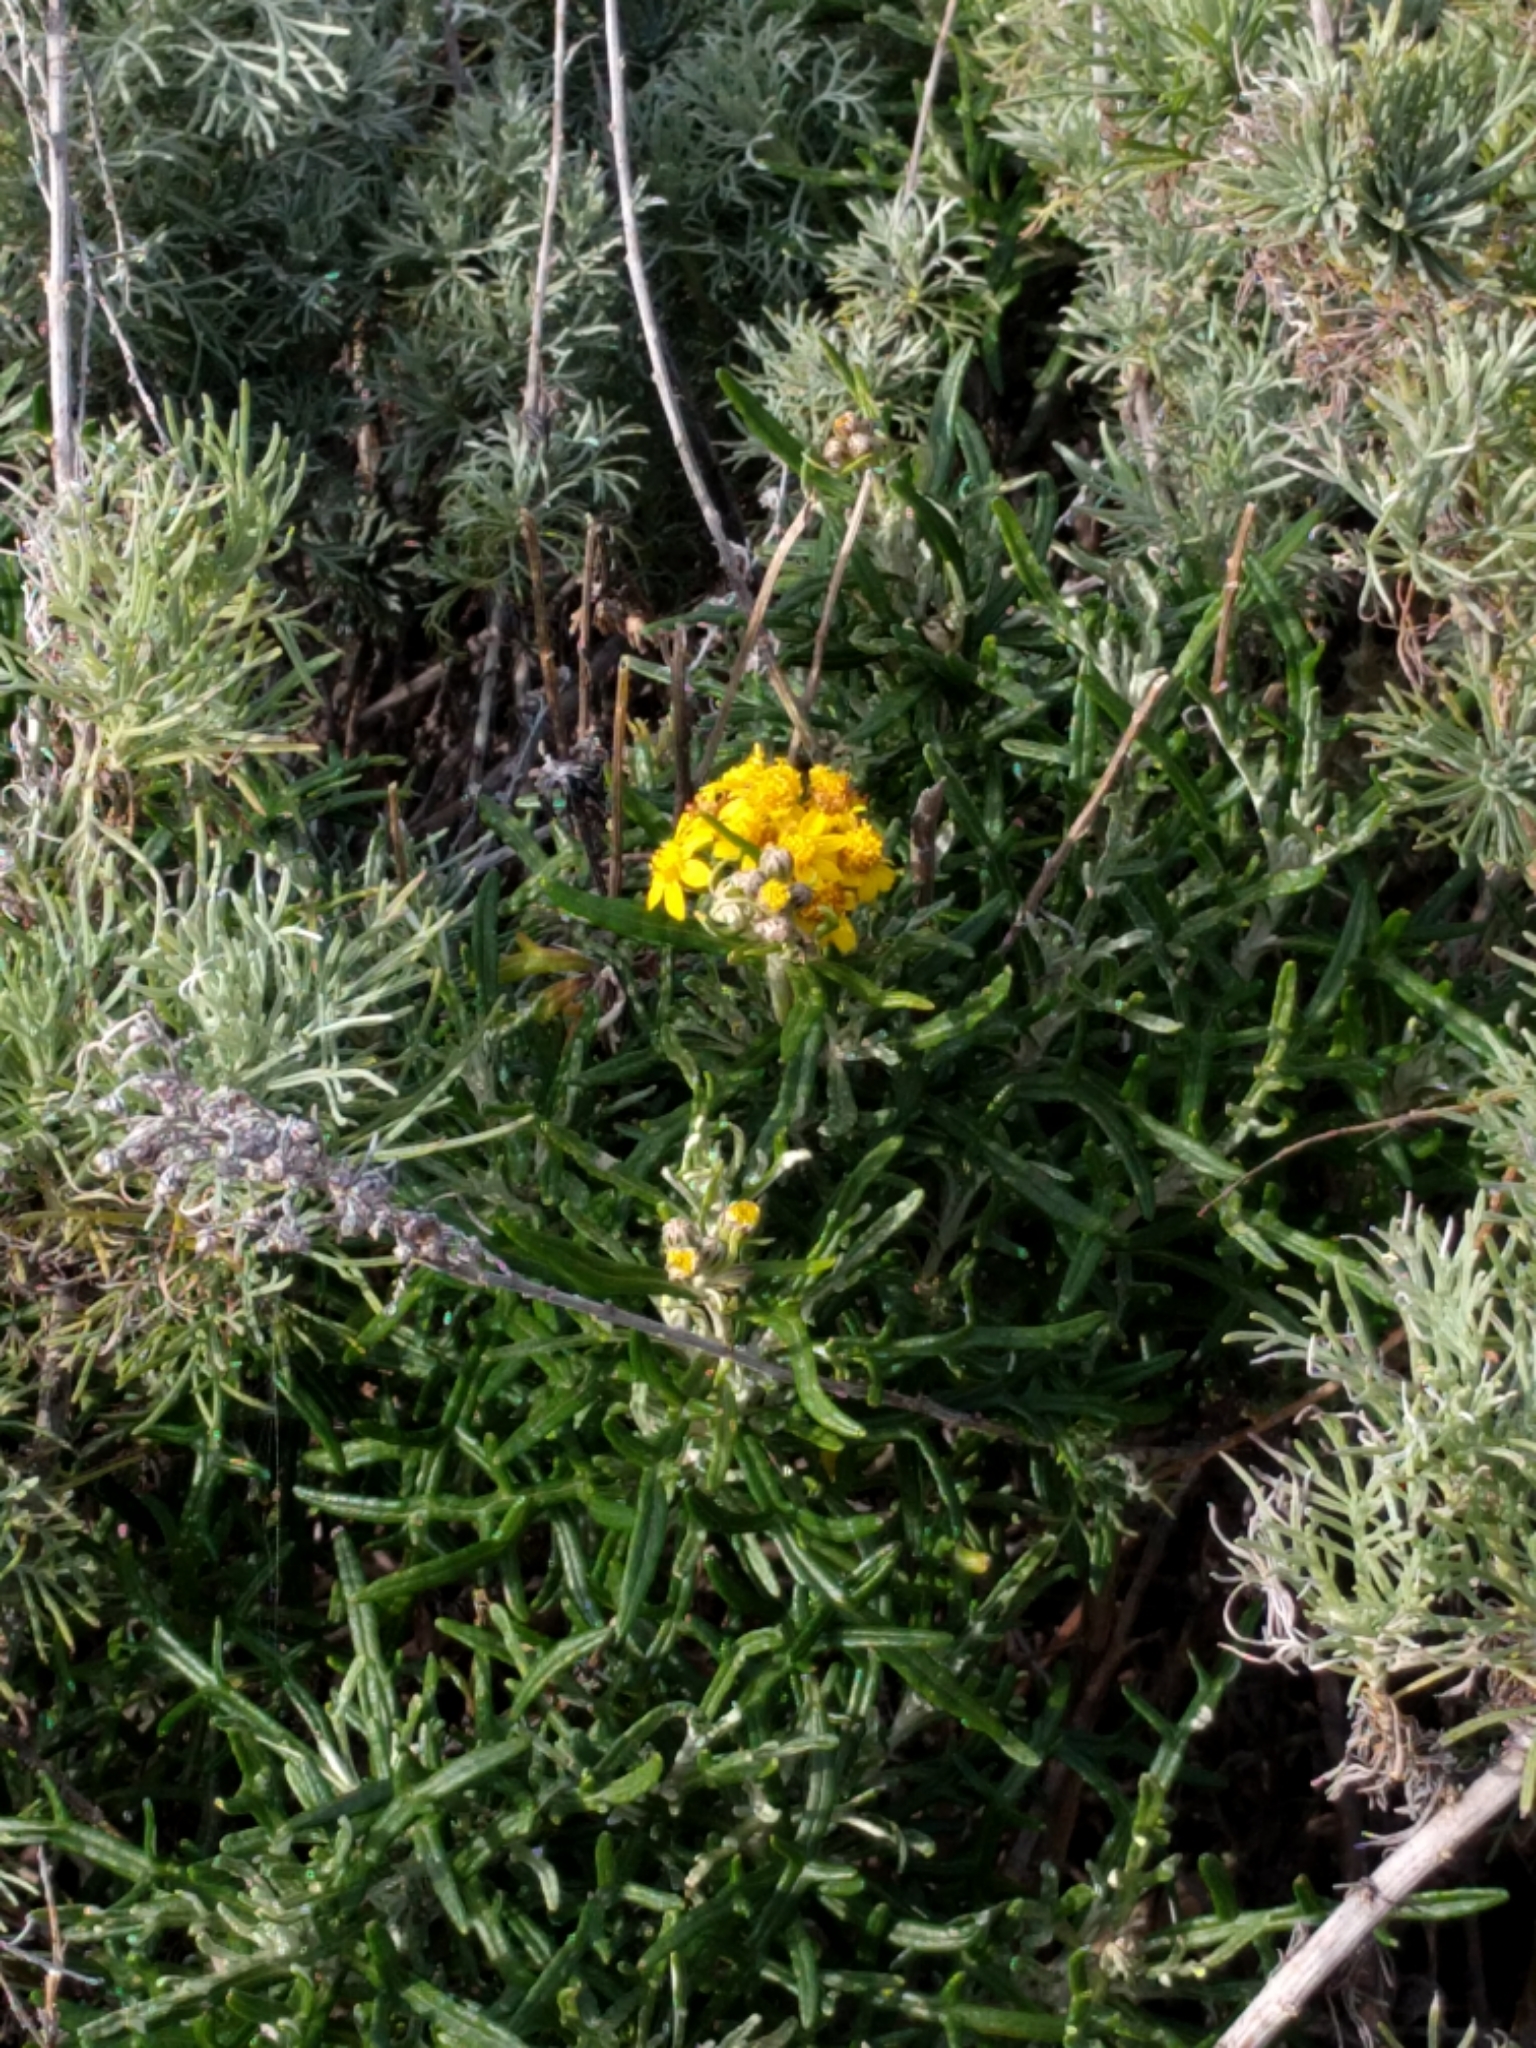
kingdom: Plantae
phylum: Tracheophyta
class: Magnoliopsida
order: Asterales
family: Asteraceae
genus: Eriophyllum
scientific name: Eriophyllum staechadifolium
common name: Lizardtail
